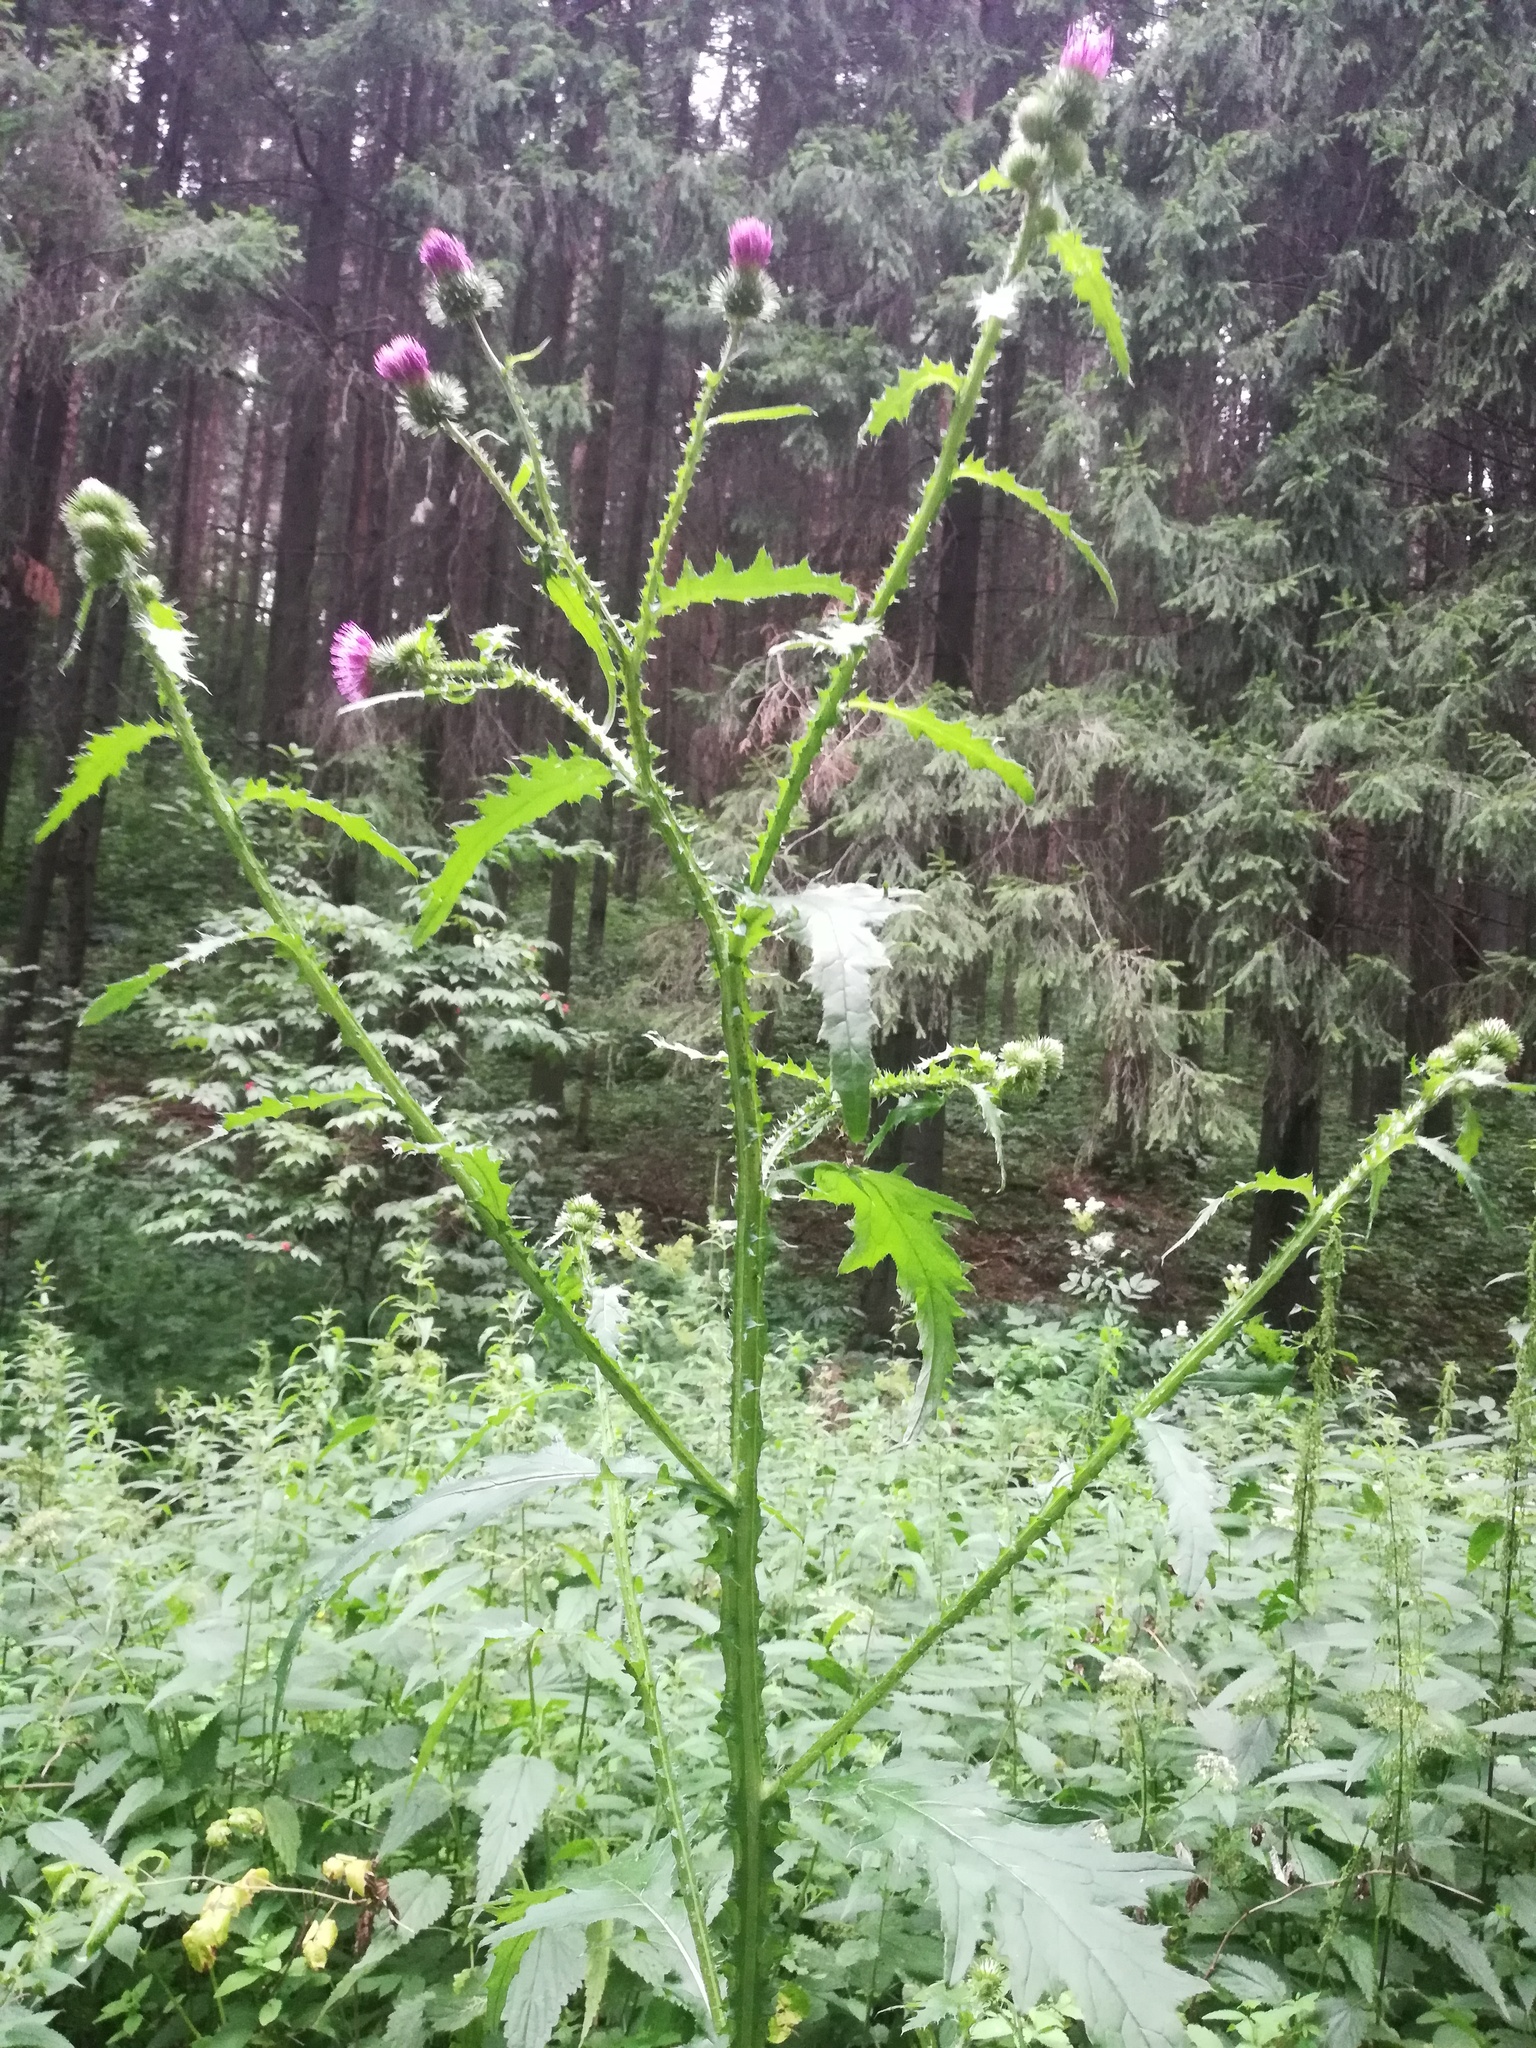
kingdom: Plantae
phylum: Tracheophyta
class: Magnoliopsida
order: Asterales
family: Asteraceae
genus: Carduus
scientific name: Carduus crispus
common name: Welted thistle
